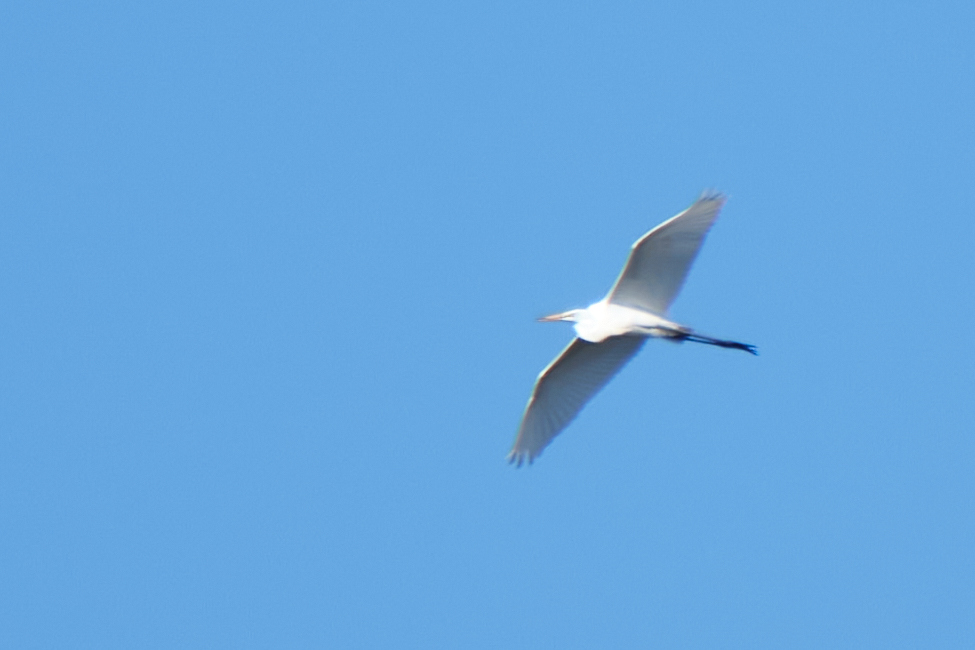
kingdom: Animalia
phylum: Chordata
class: Aves
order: Pelecaniformes
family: Ardeidae
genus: Ardea
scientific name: Ardea alba
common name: Great egret
